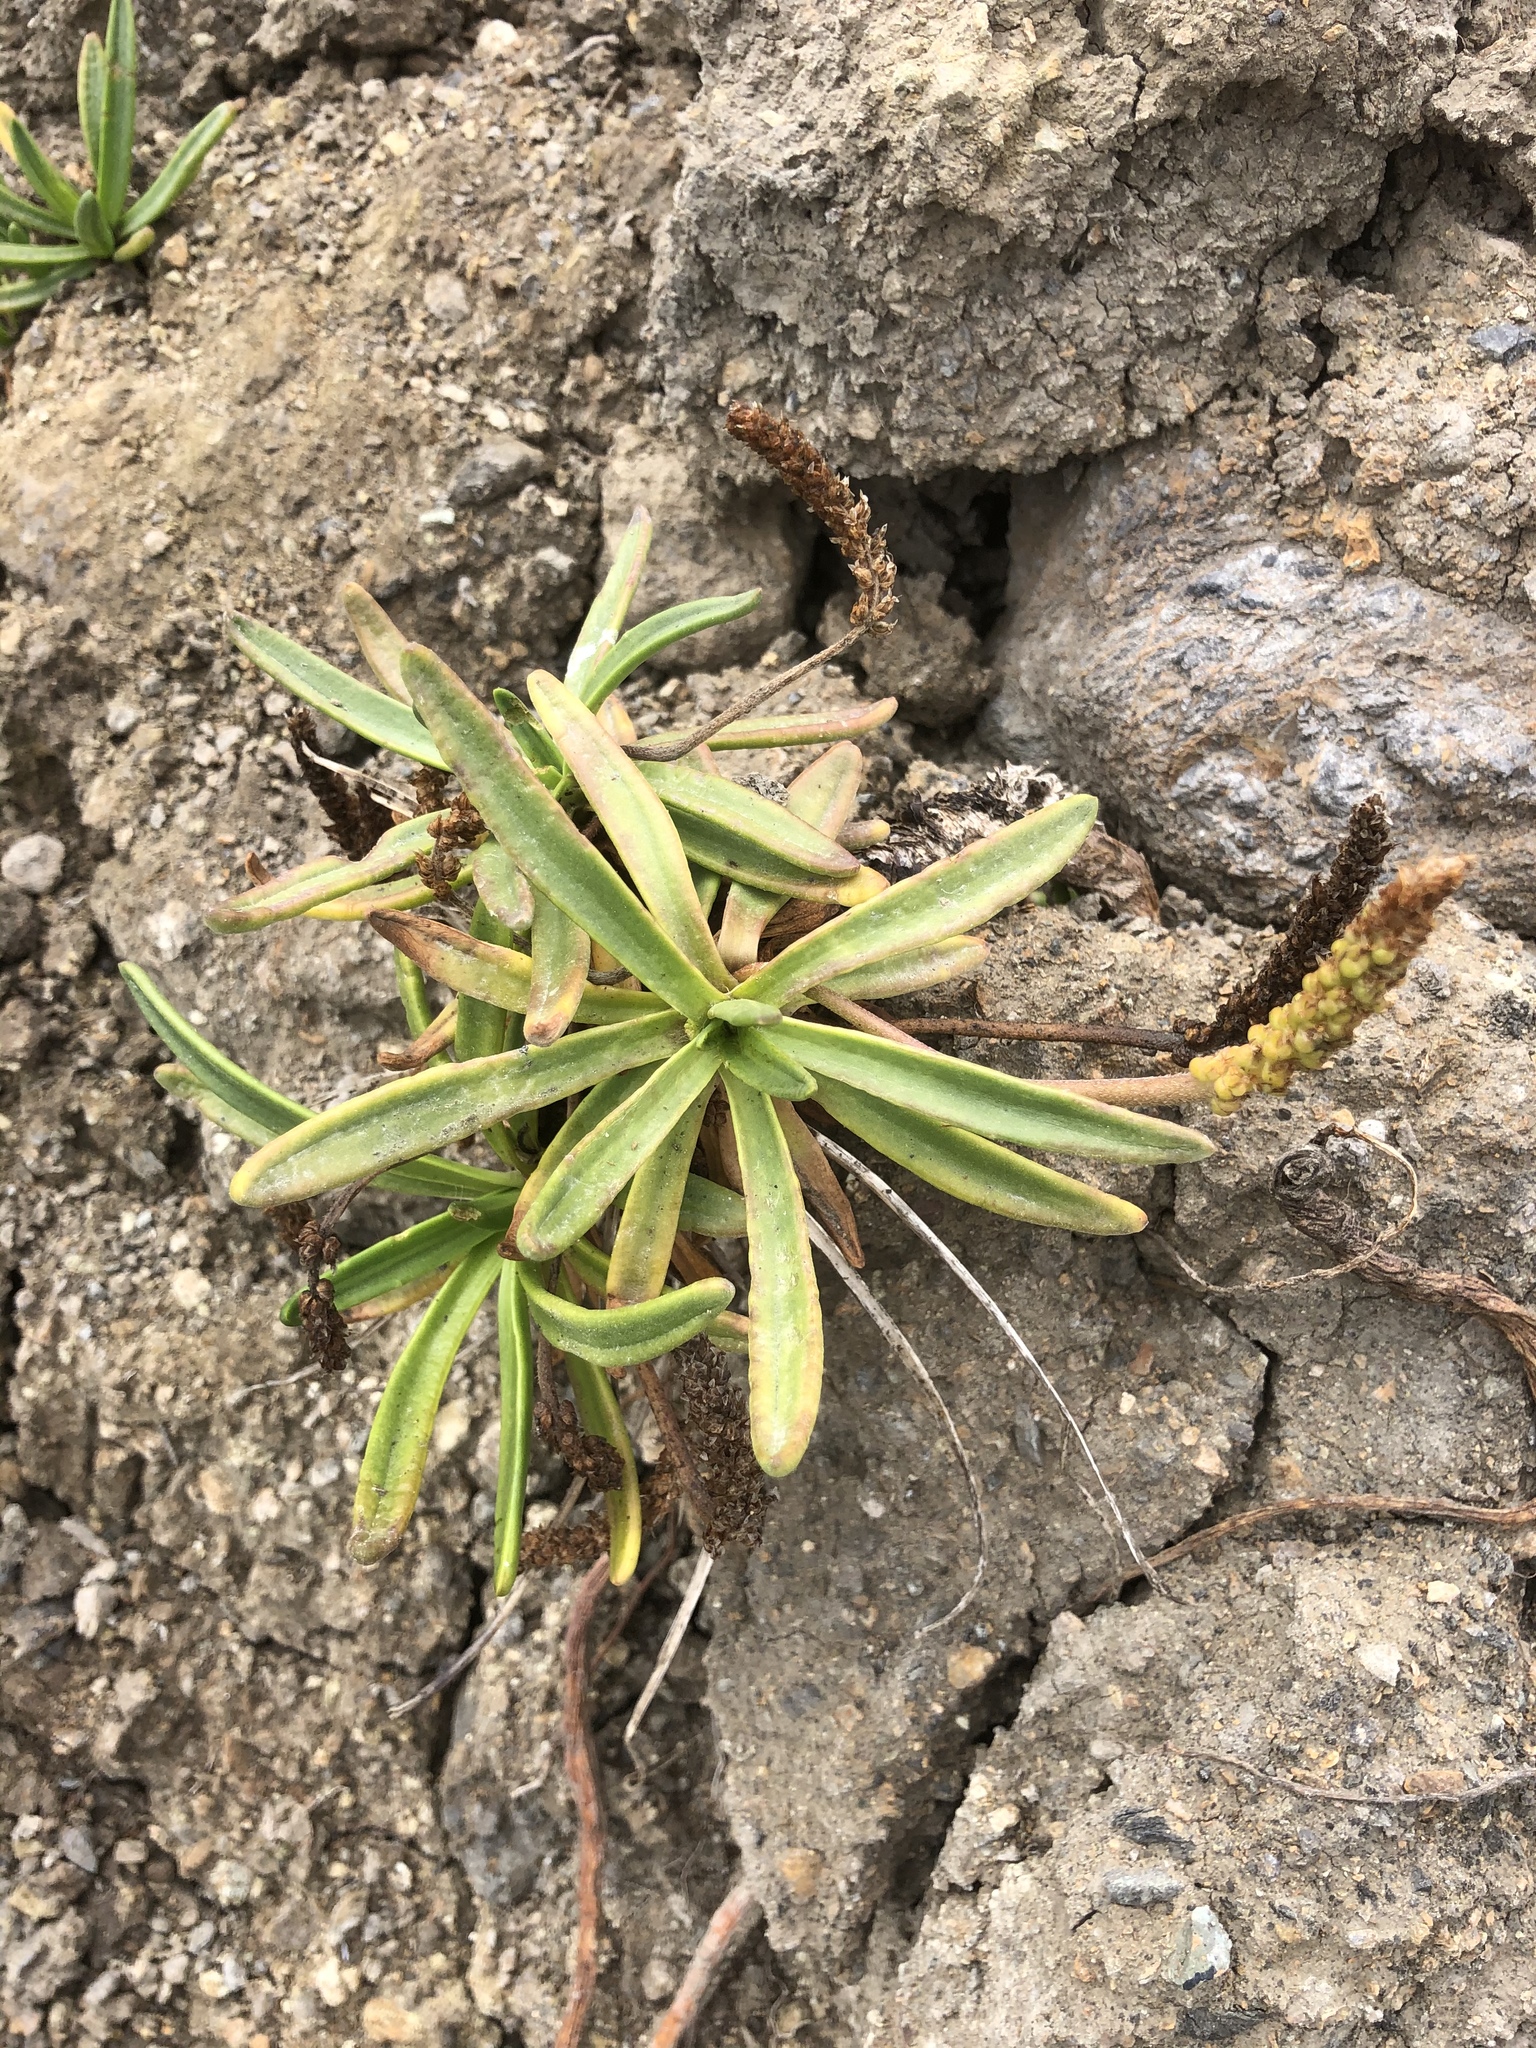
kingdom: Plantae
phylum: Tracheophyta
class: Magnoliopsida
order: Lamiales
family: Plantaginaceae
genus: Plantago
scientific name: Plantago maritima
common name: Sea plantain
